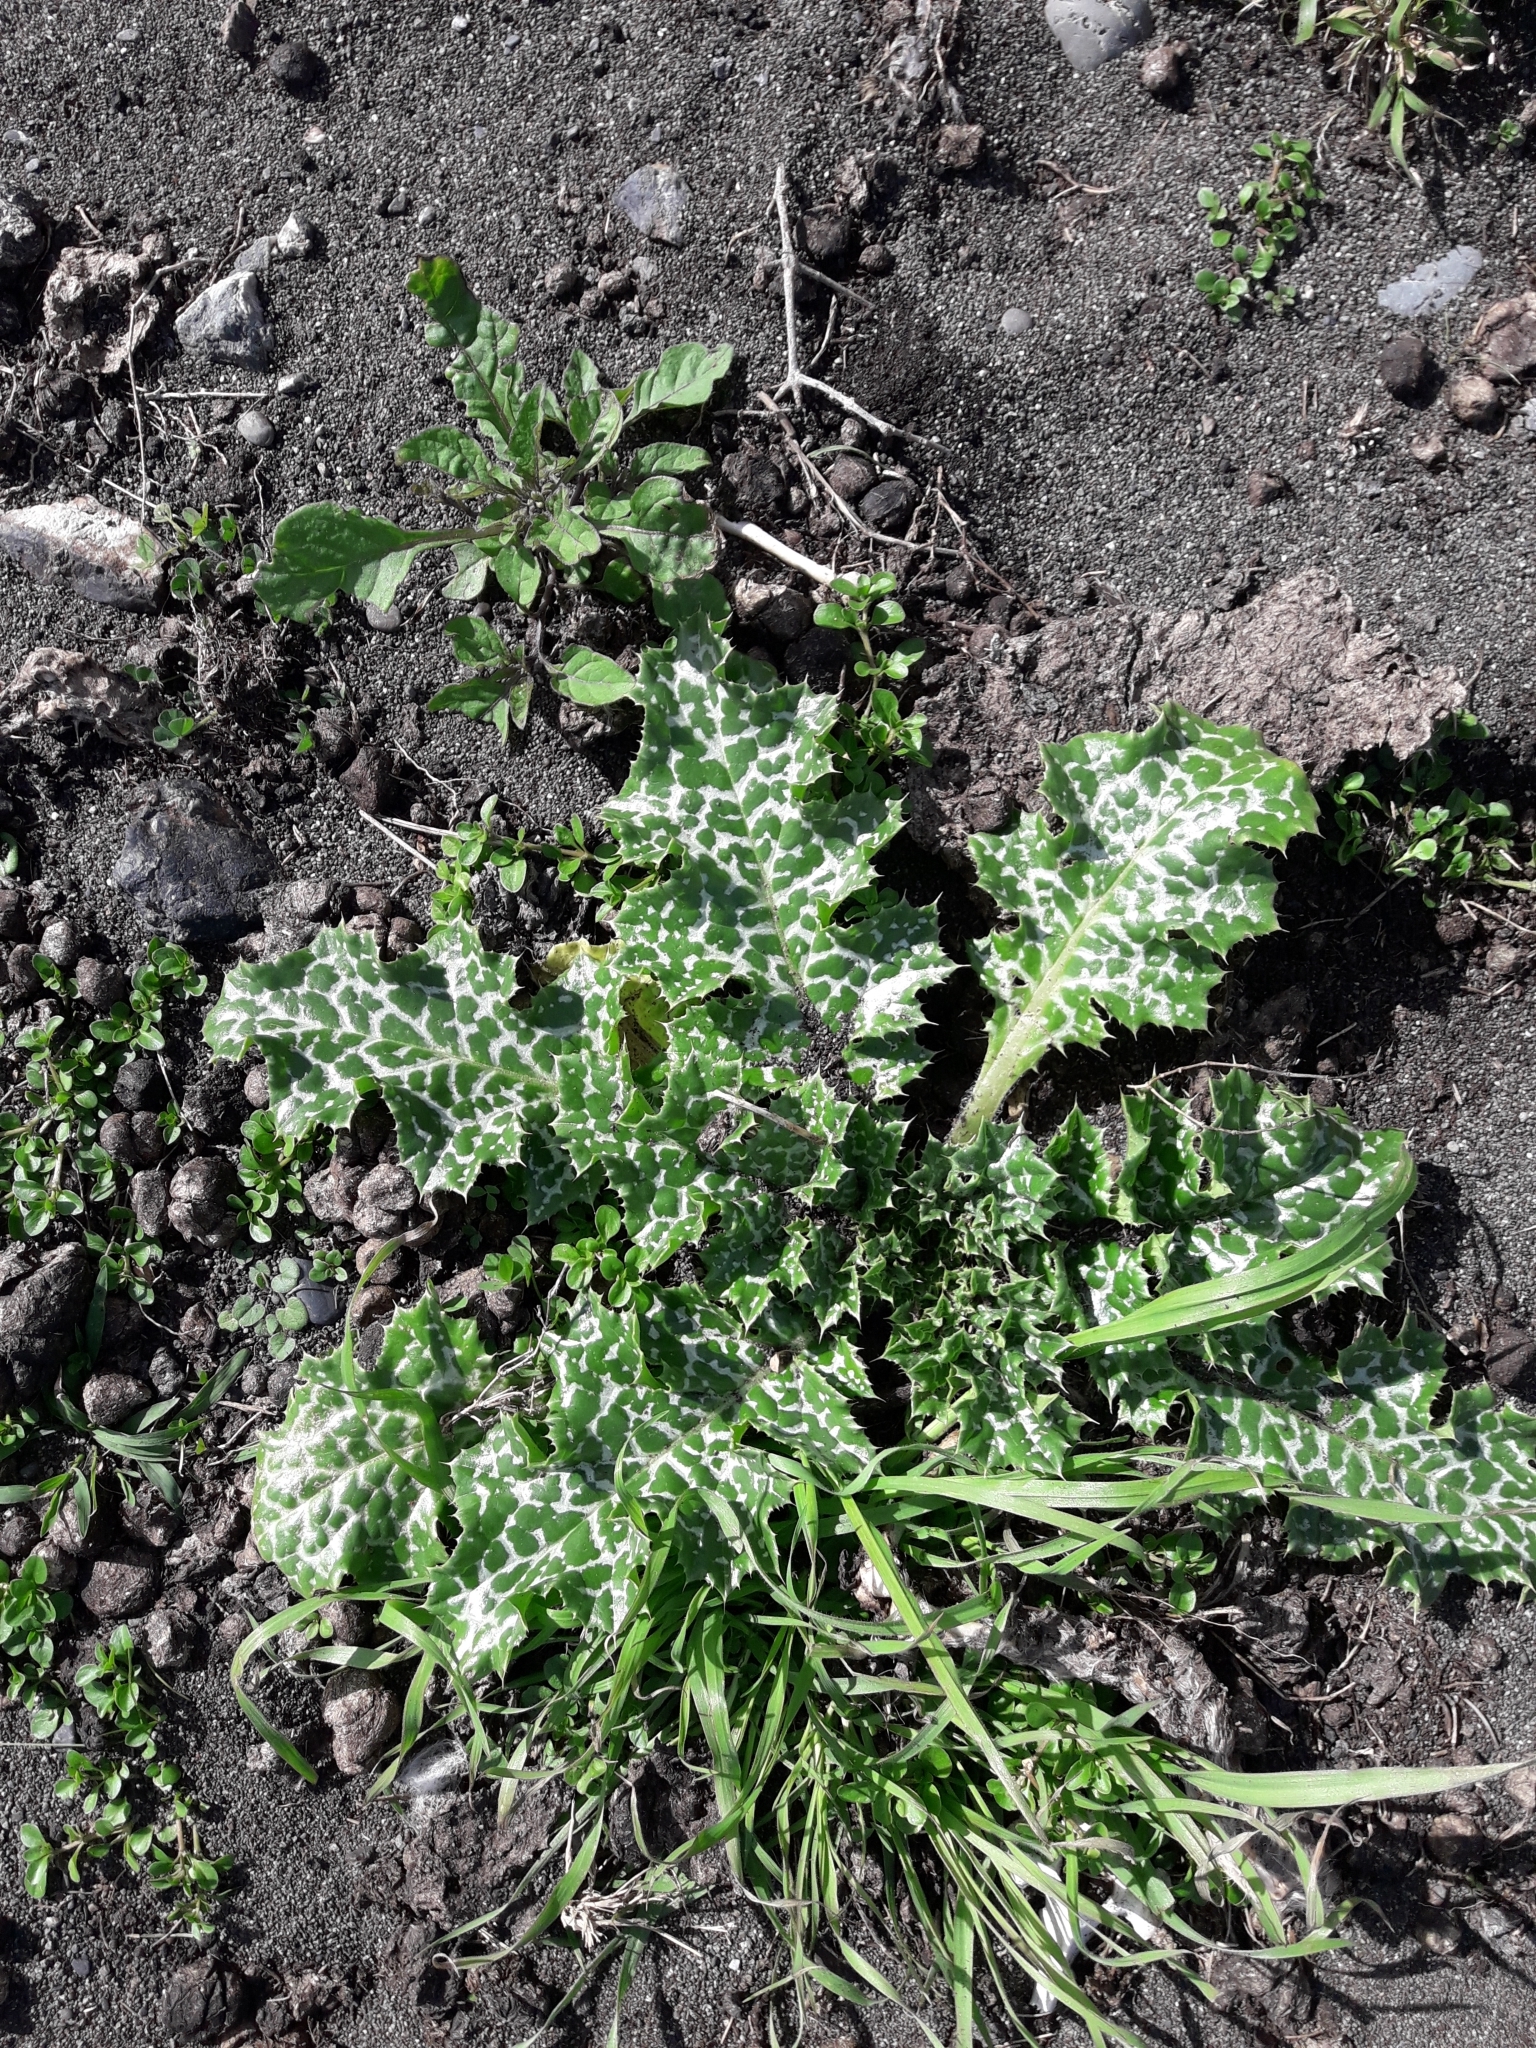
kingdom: Plantae
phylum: Tracheophyta
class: Magnoliopsida
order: Asterales
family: Asteraceae
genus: Silybum
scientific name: Silybum marianum
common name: Milk thistle
